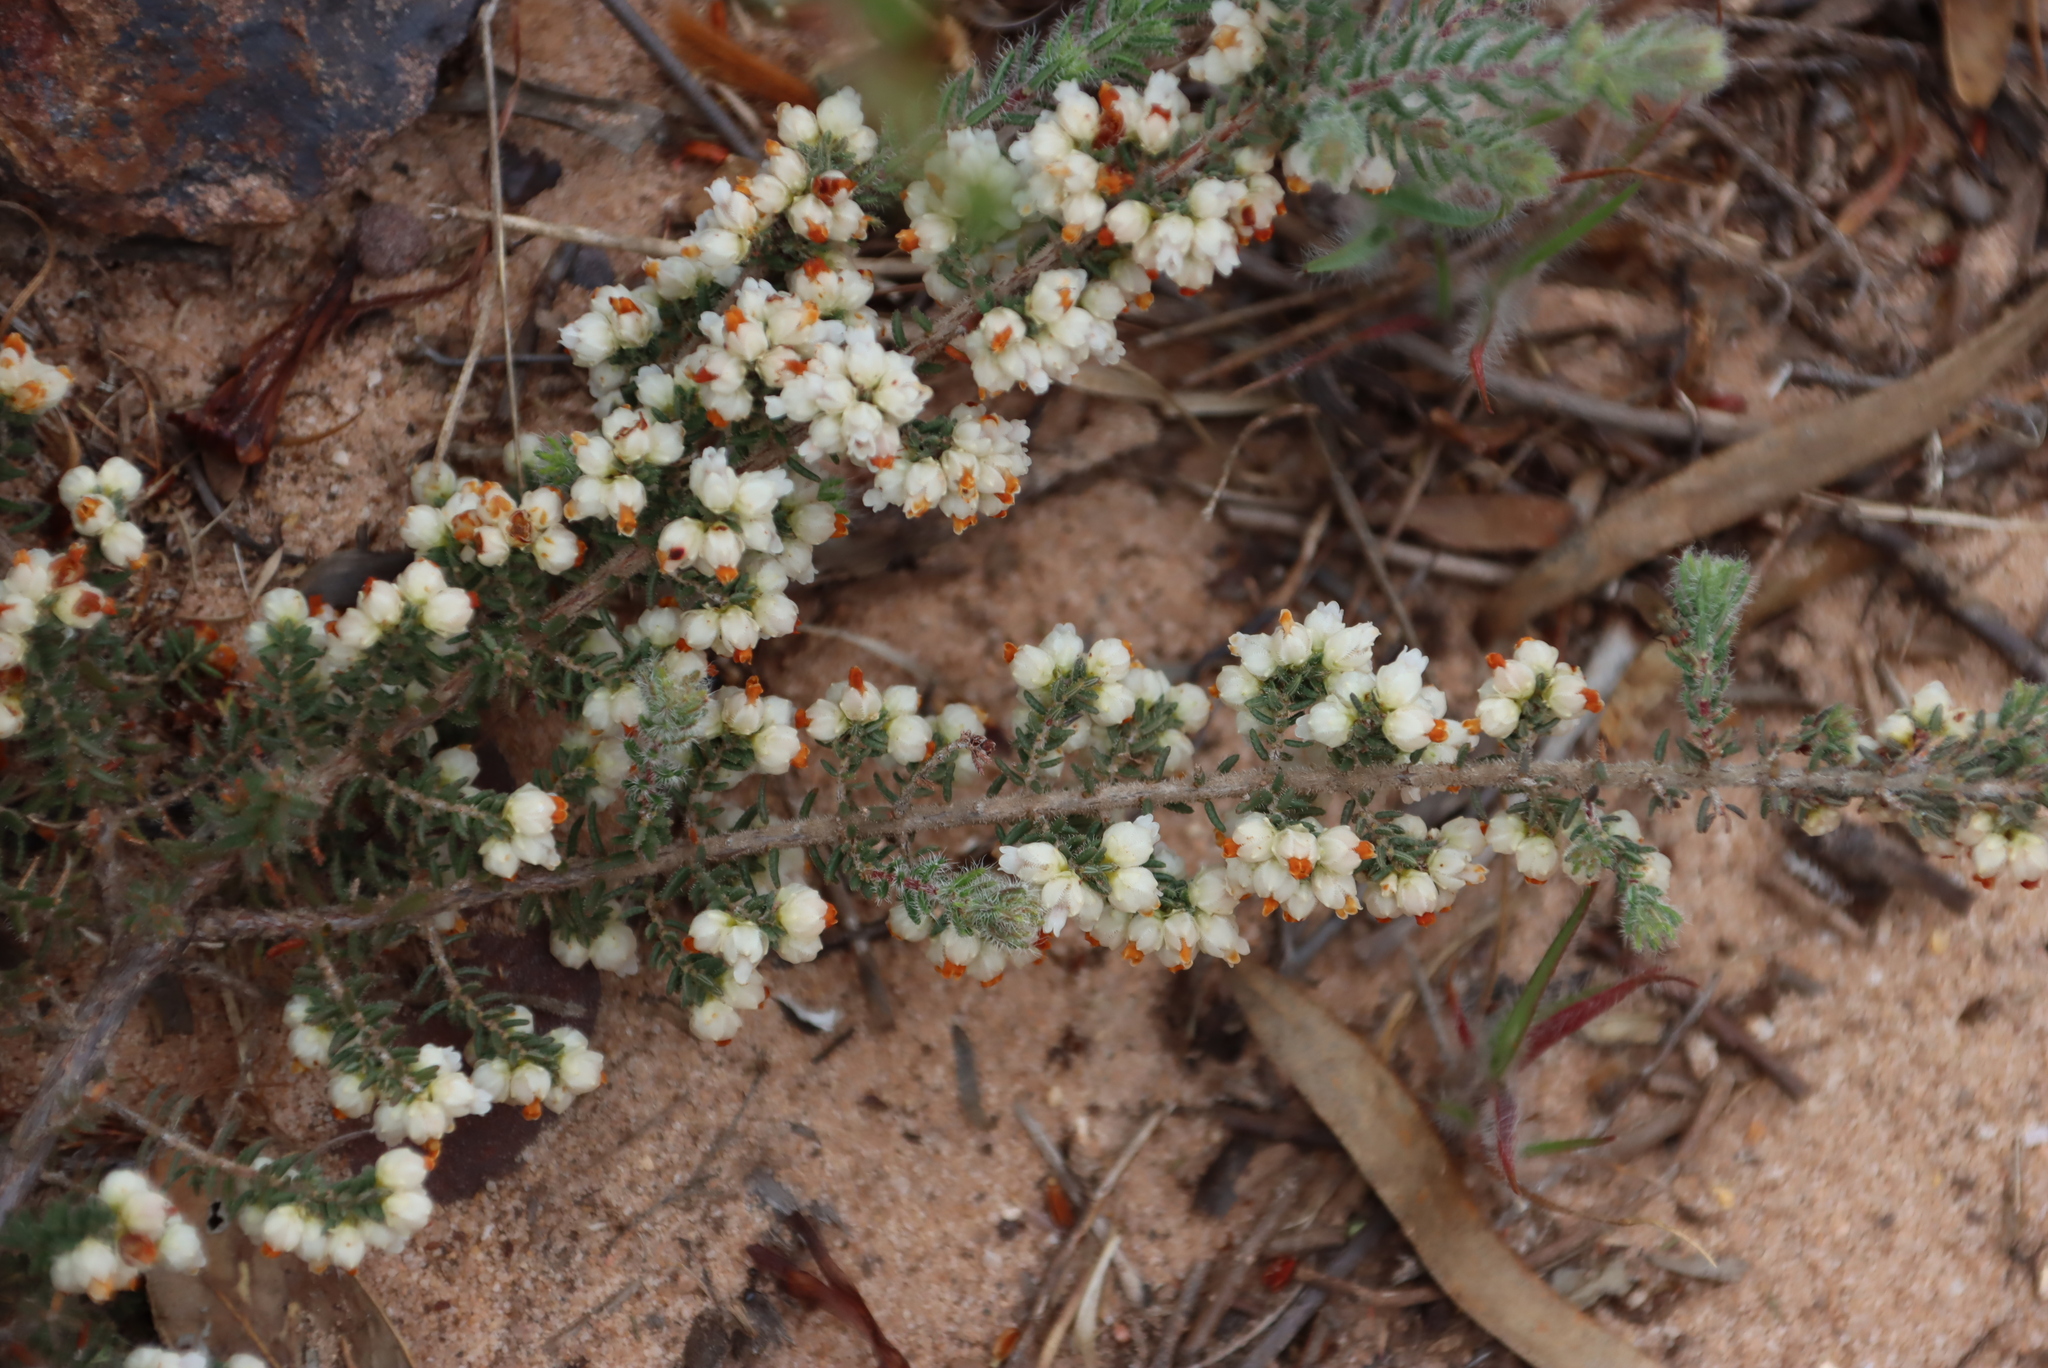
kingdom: Plantae
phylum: Tracheophyta
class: Magnoliopsida
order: Ericales
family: Ericaceae
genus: Erica
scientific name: Erica totta
